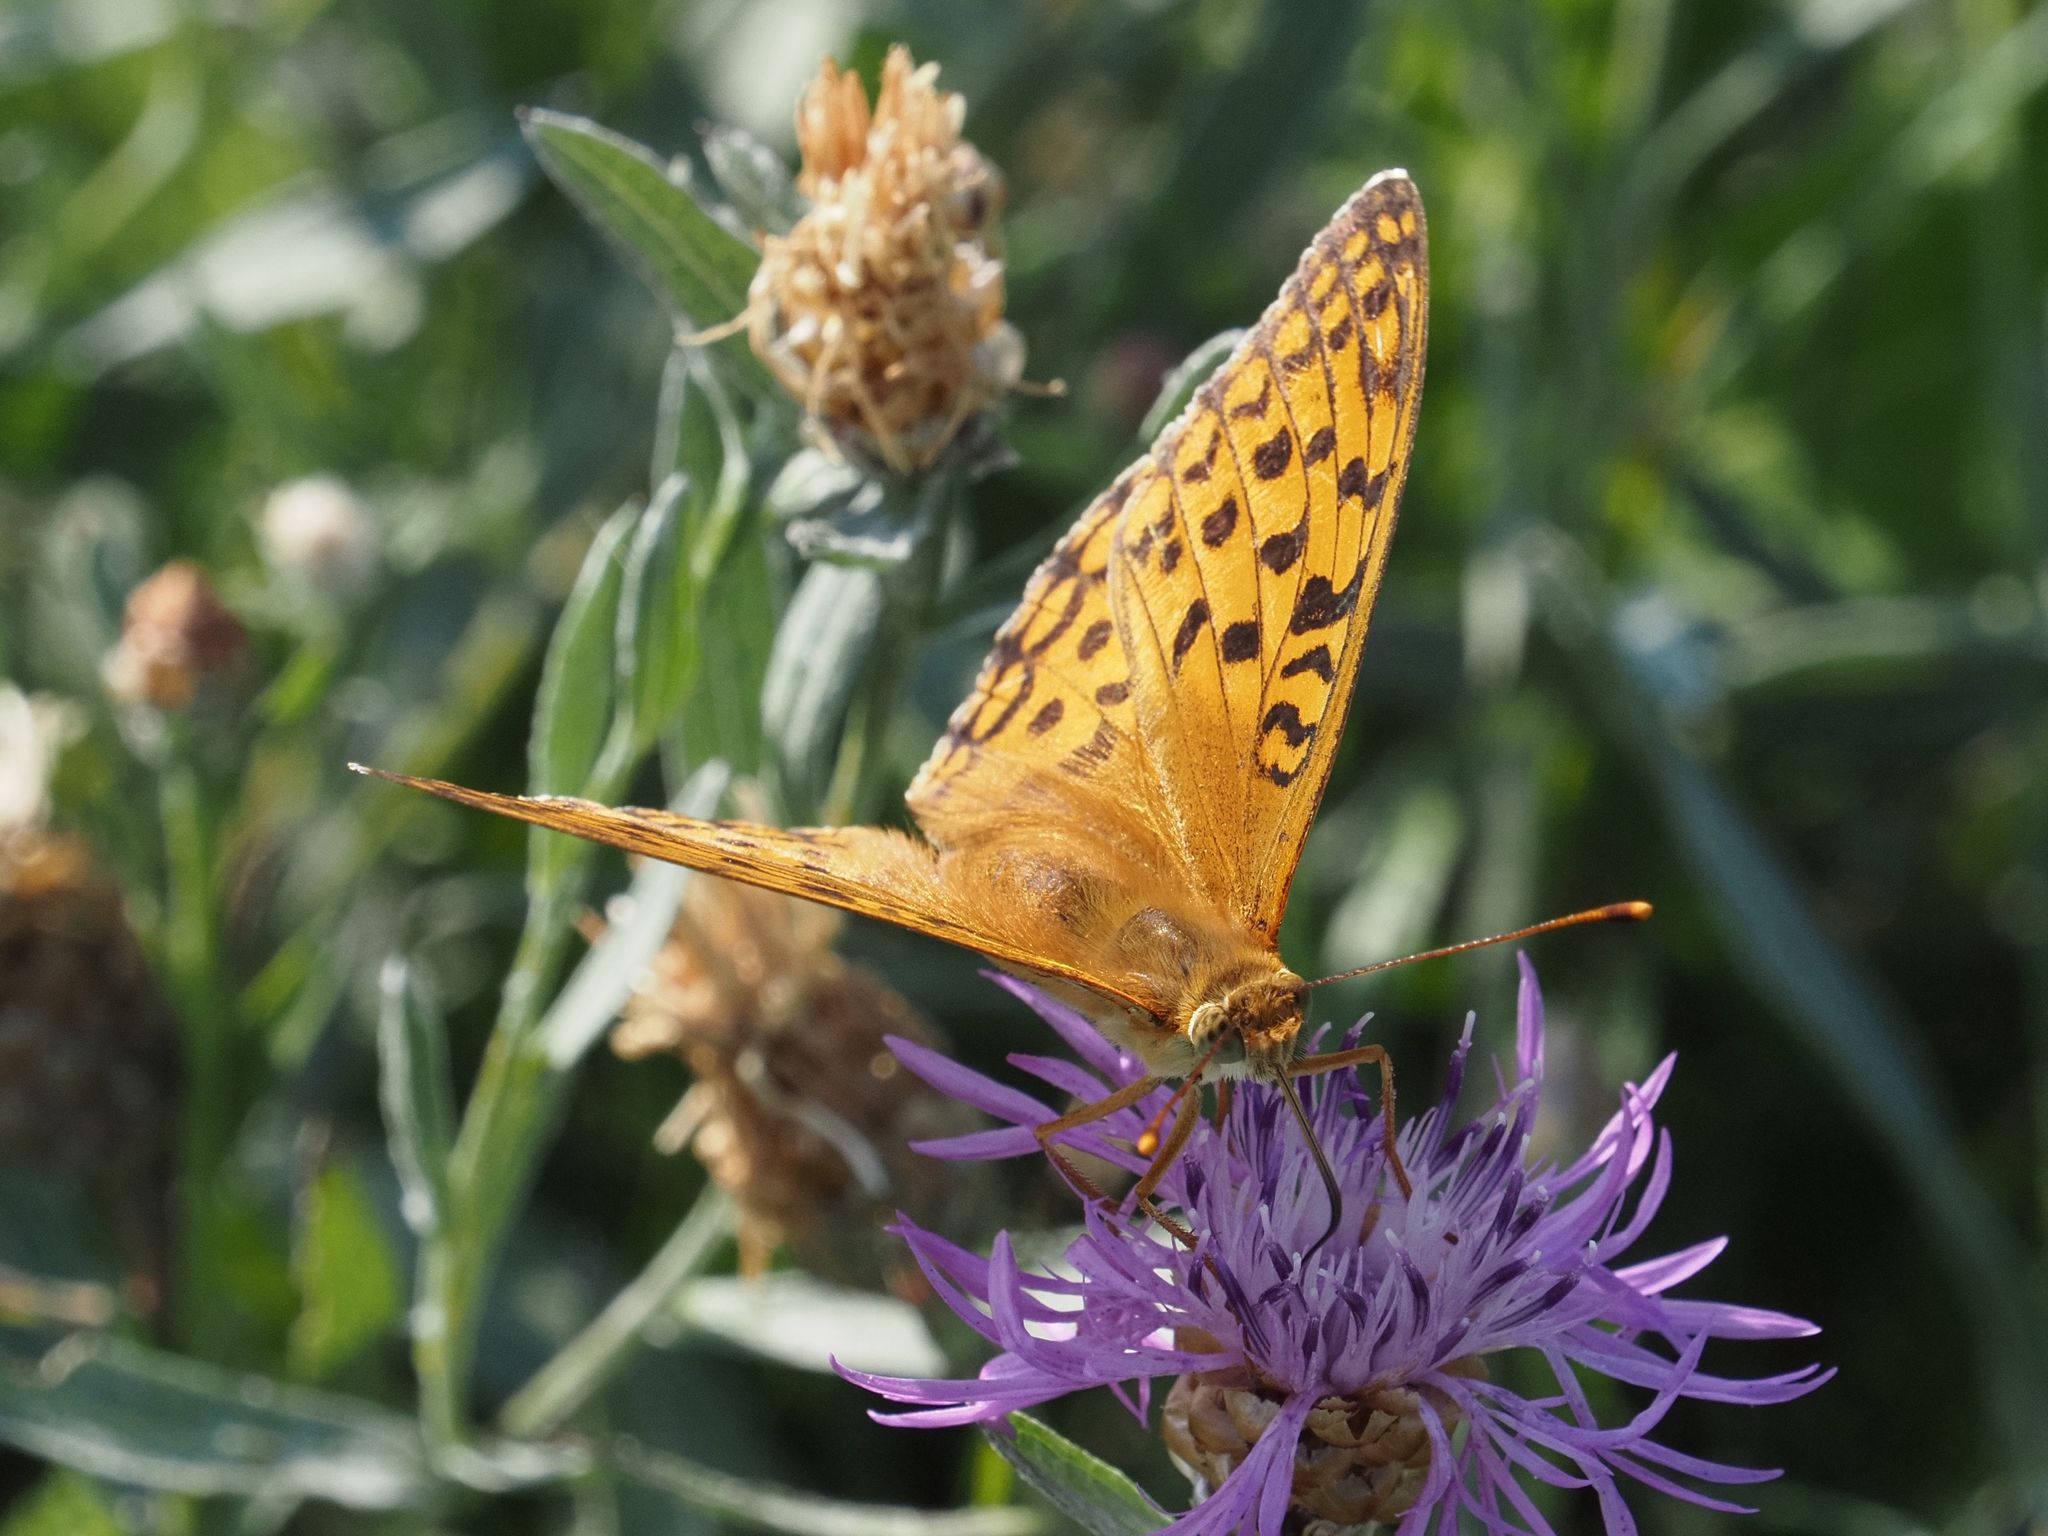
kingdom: Animalia
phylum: Arthropoda
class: Insecta
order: Lepidoptera
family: Nymphalidae
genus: Fabriciana
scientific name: Fabriciana adippe
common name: High brown fritillary
